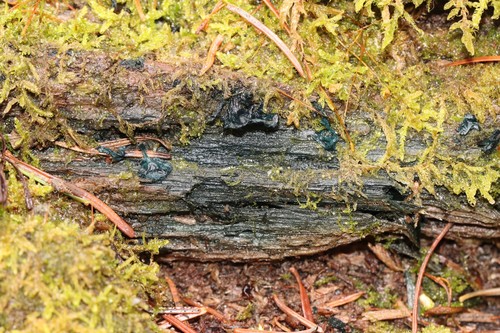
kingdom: Fungi
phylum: Ascomycota
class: Leotiomycetes
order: Helotiales
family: Chlorociboriaceae
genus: Chlorociboria
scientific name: Chlorociboria aeruginascens
